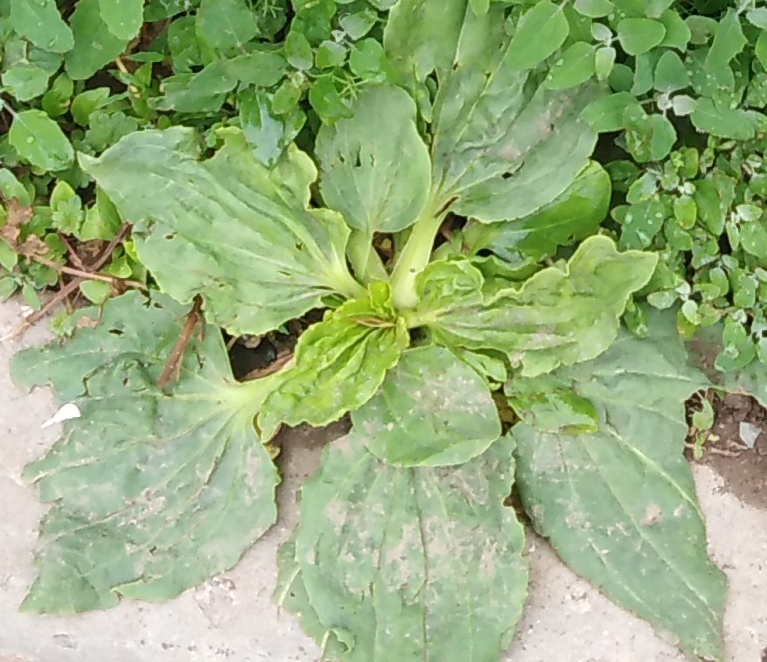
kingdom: Plantae
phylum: Tracheophyta
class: Magnoliopsida
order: Lamiales
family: Plantaginaceae
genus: Plantago
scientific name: Plantago major
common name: Common plantain
